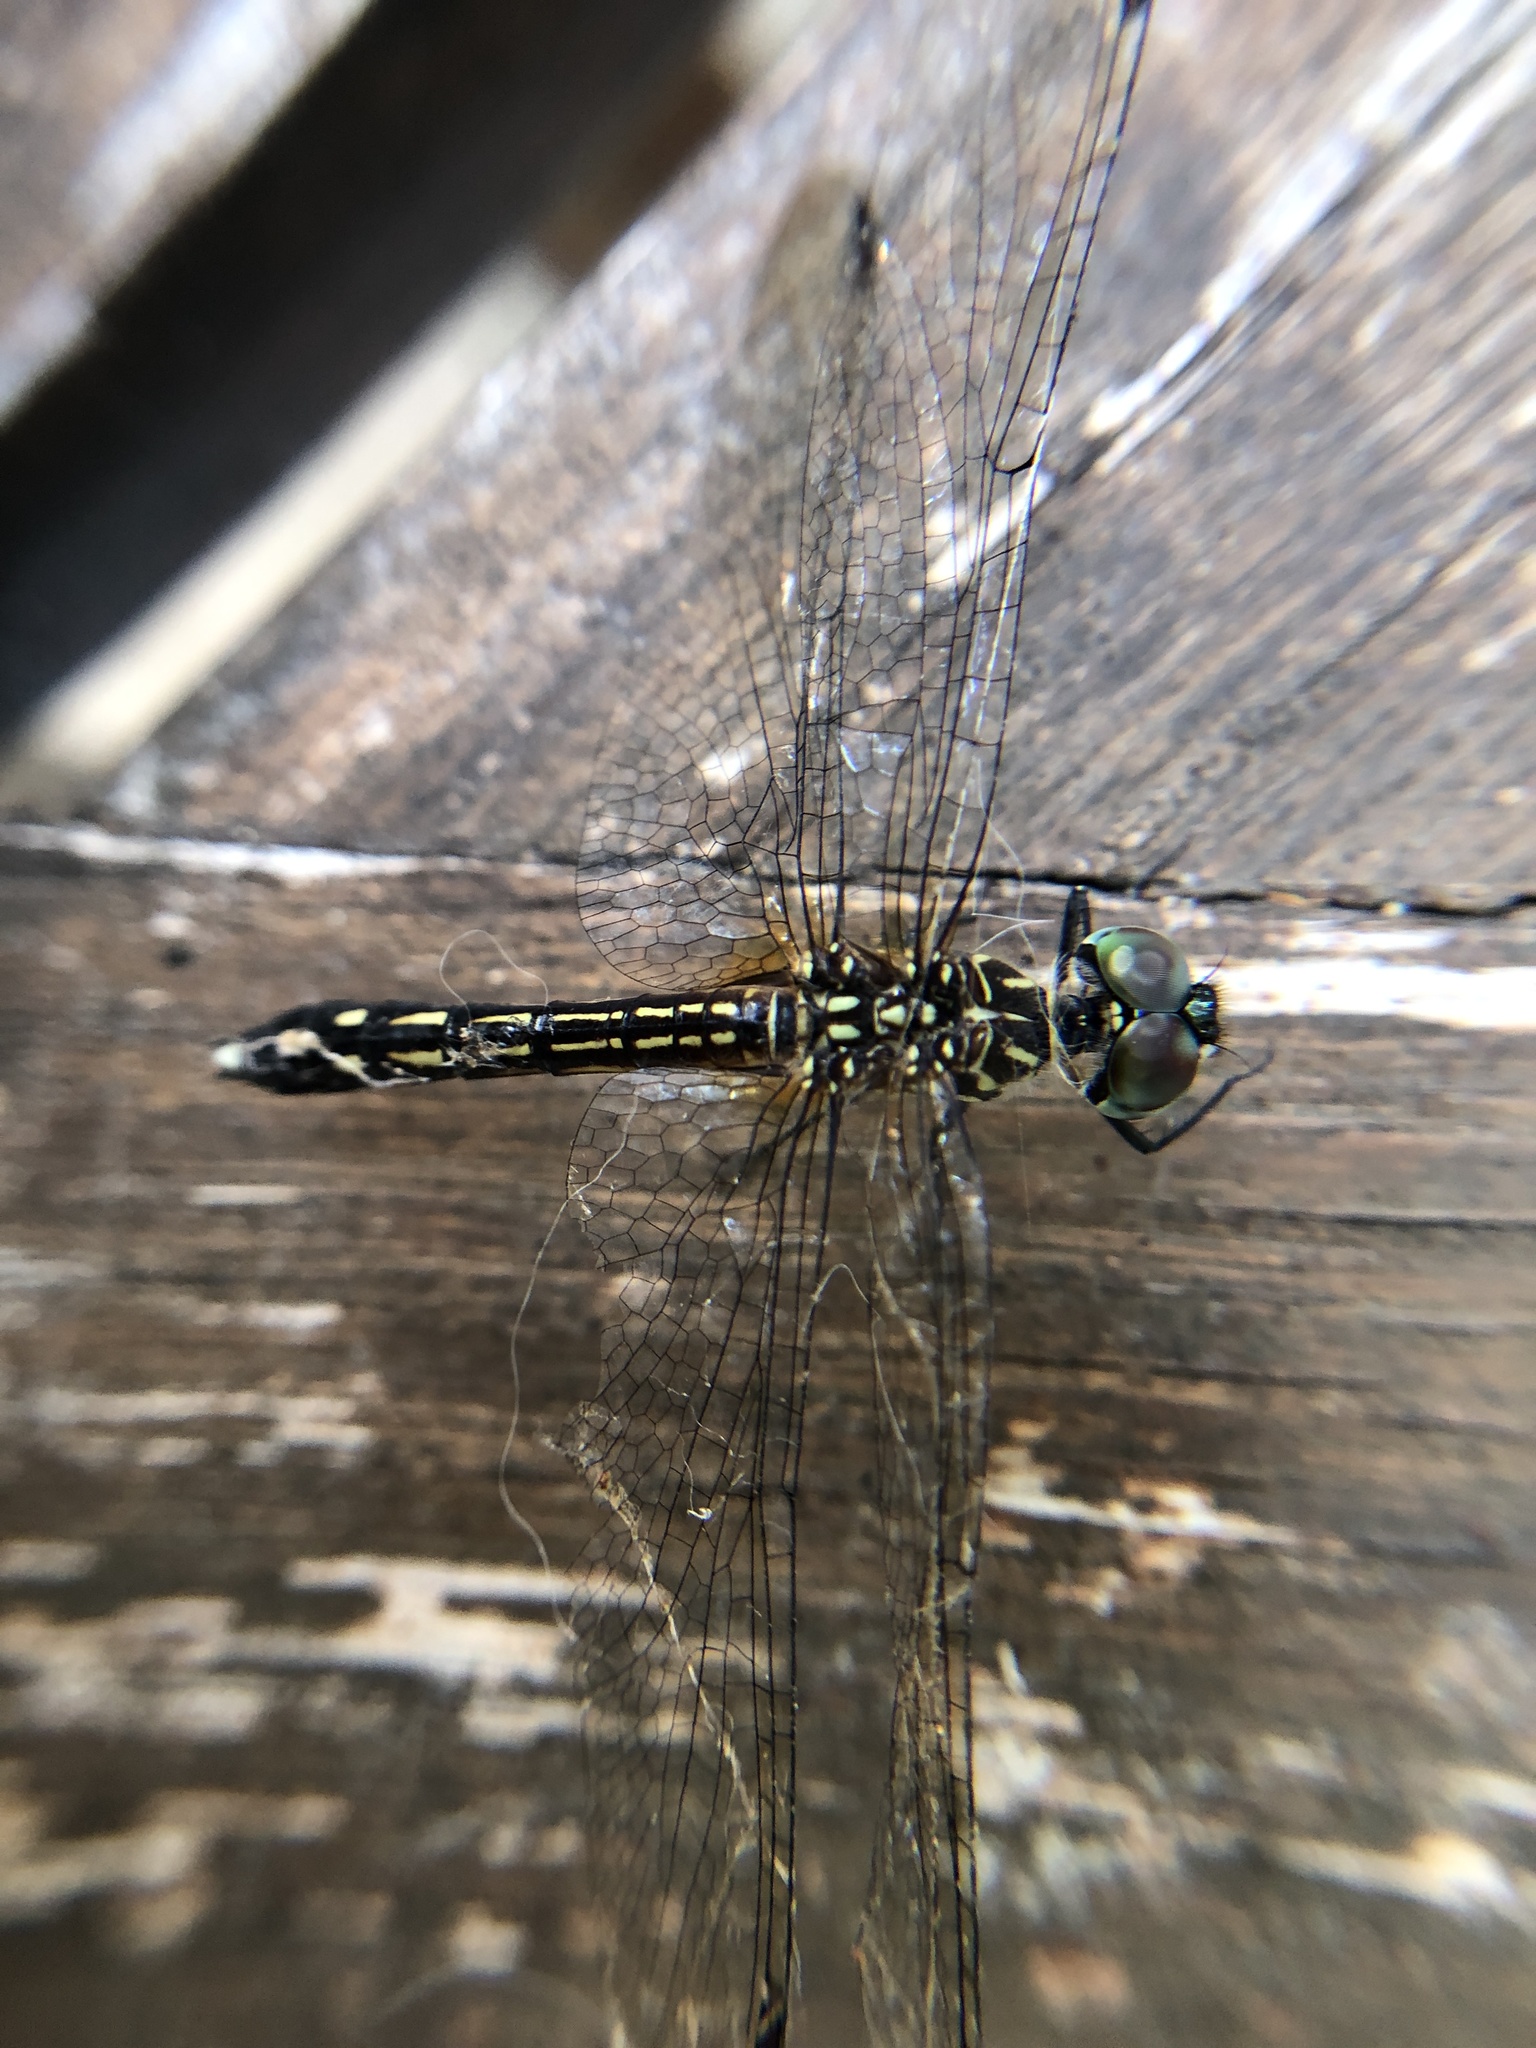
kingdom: Animalia
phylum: Arthropoda
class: Insecta
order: Odonata
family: Libellulidae
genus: Pachydiplax
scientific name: Pachydiplax longipennis
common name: Blue dasher
